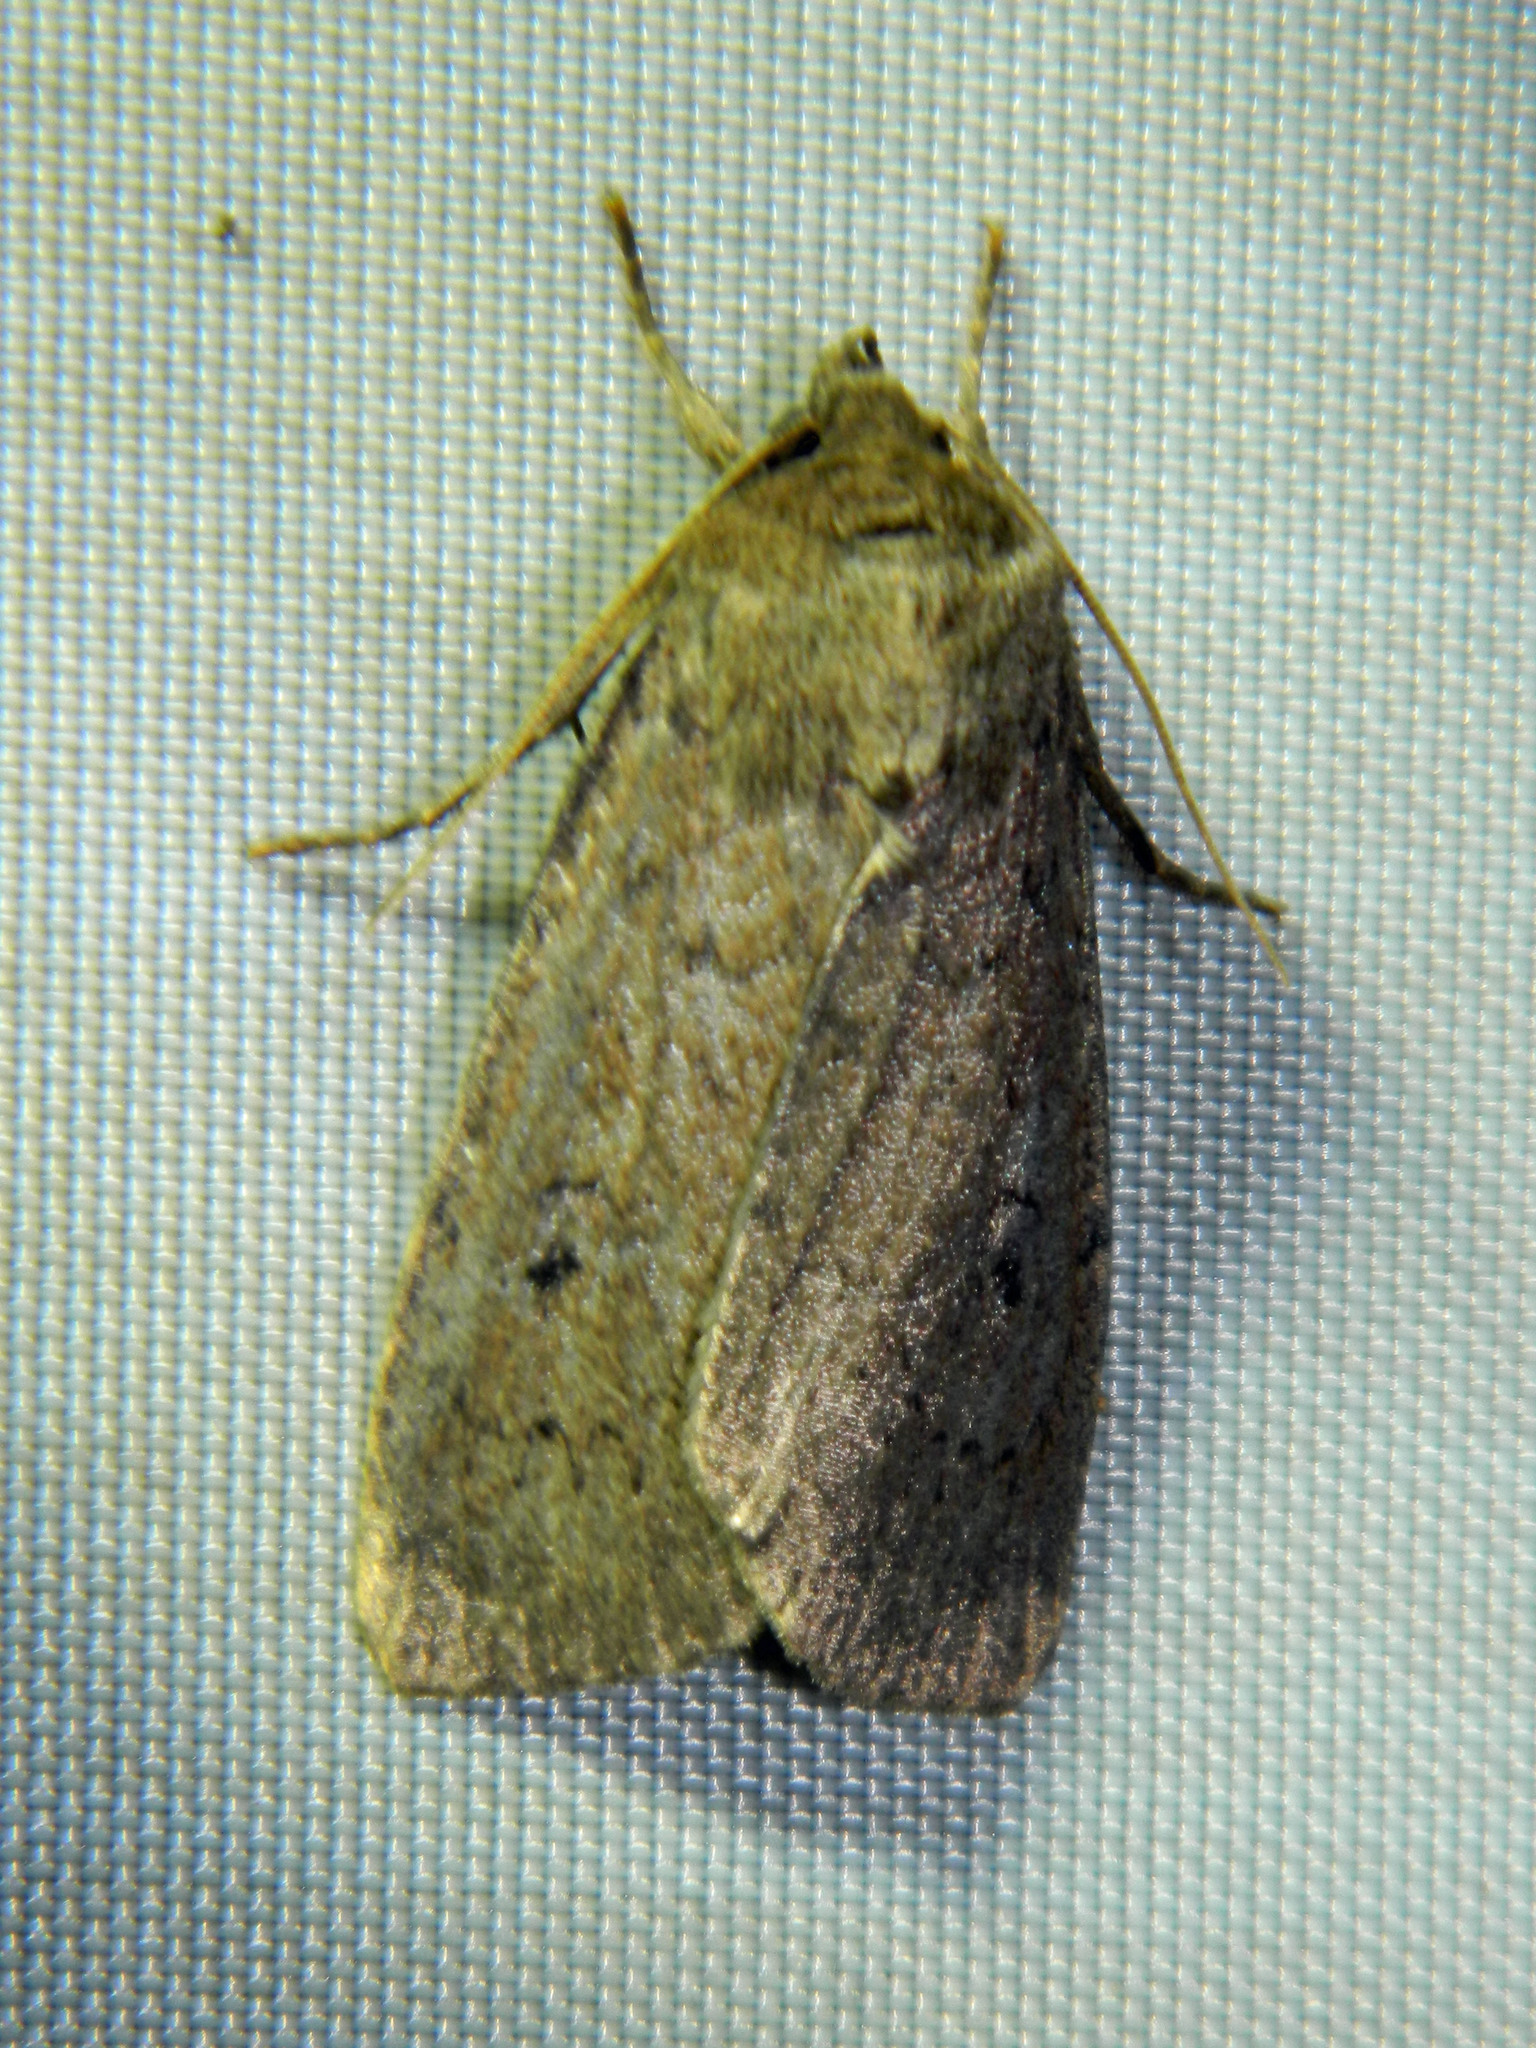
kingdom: Animalia
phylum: Arthropoda
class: Insecta
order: Lepidoptera
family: Noctuidae
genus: Graphiphora
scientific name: Graphiphora augur
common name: Double dart
